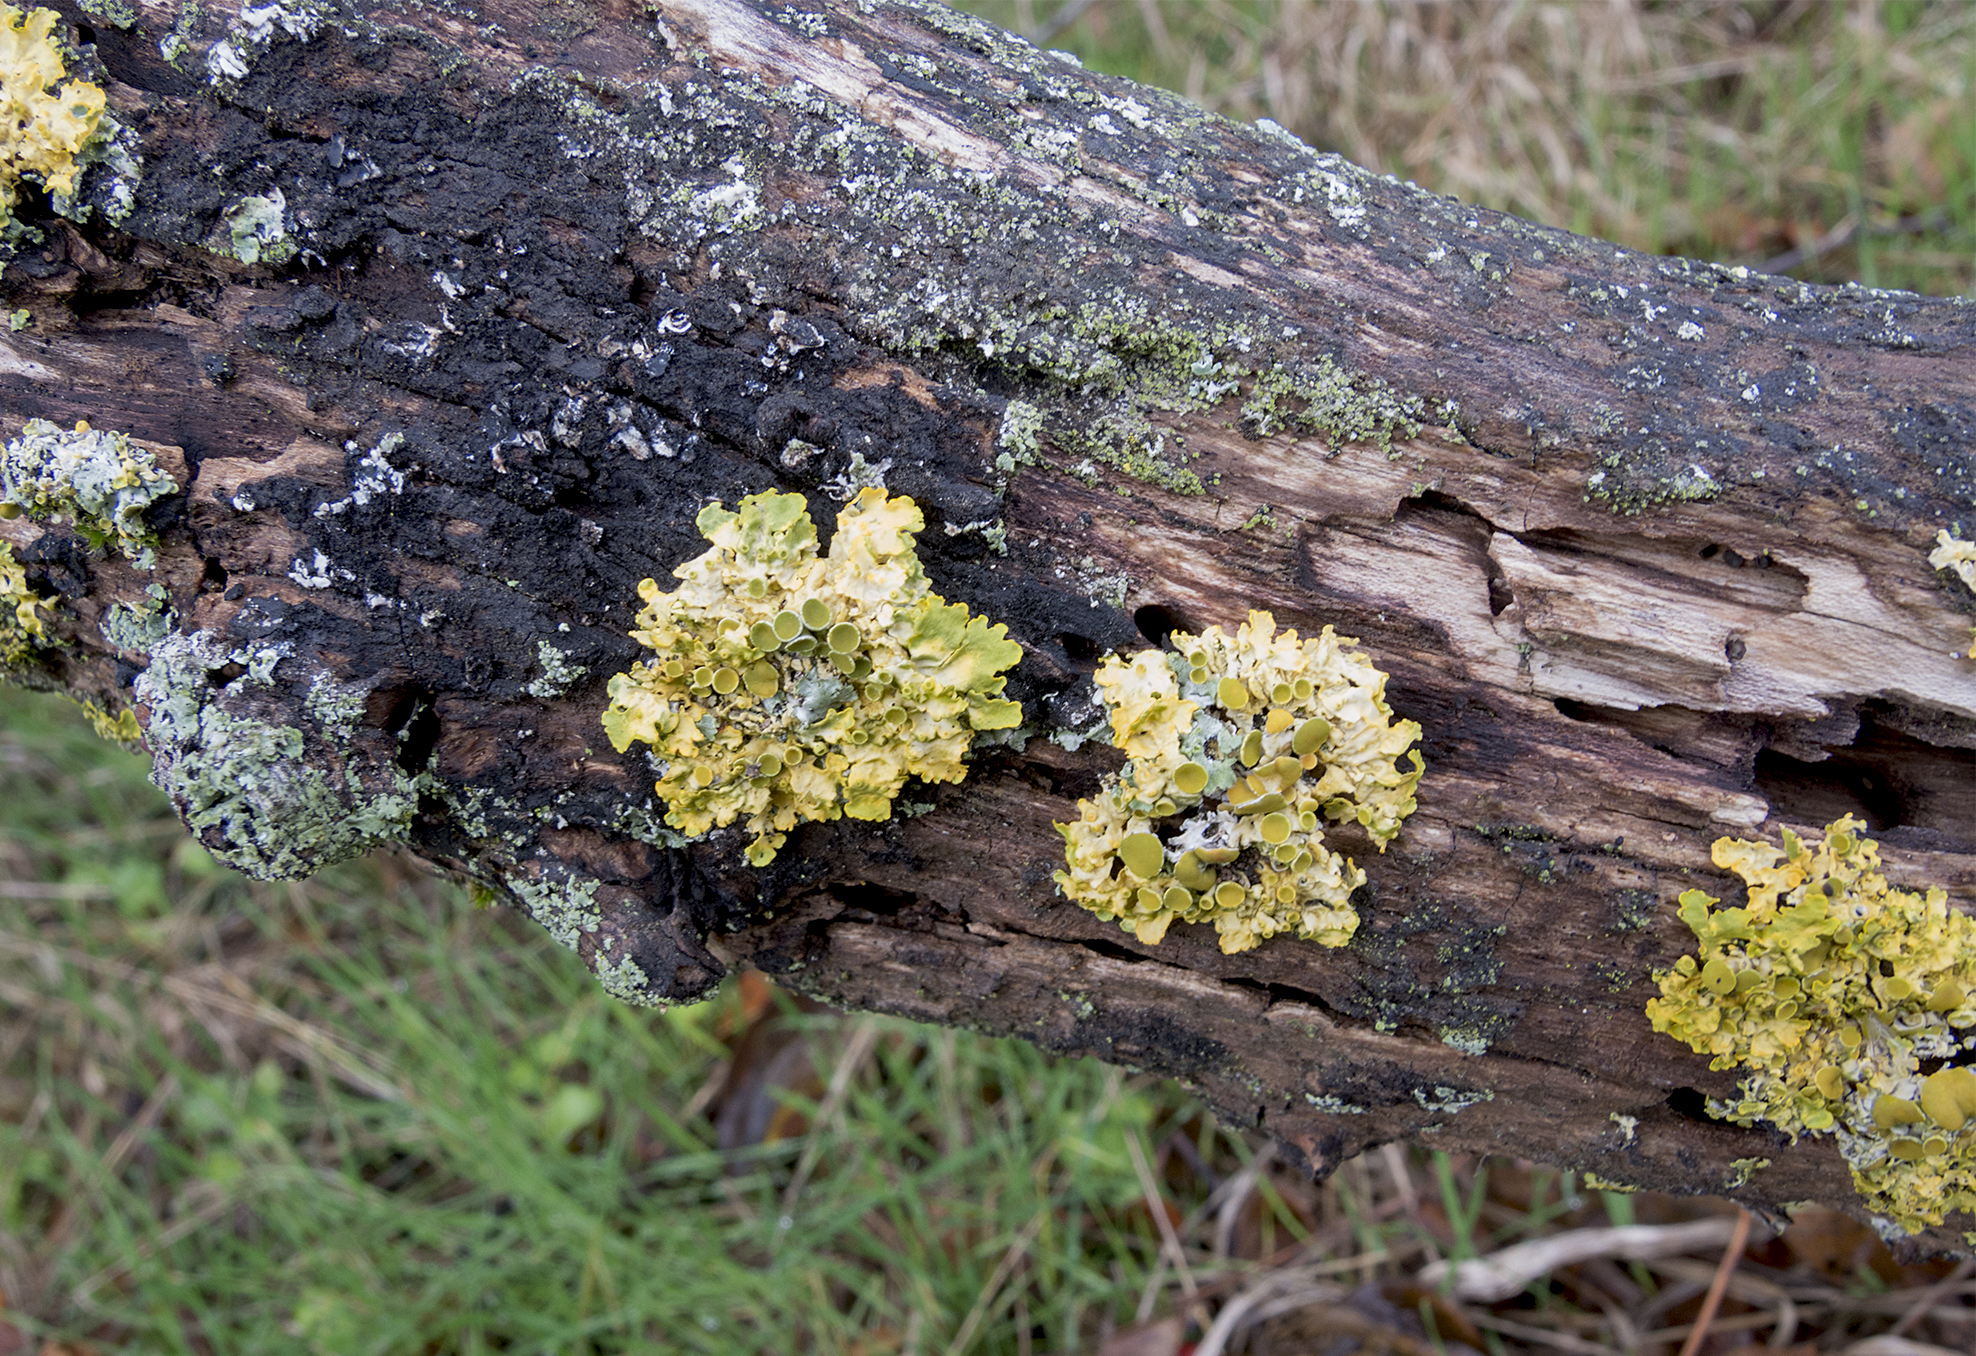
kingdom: Fungi
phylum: Ascomycota
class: Lecanoromycetes
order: Teloschistales
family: Teloschistaceae
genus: Xanthoria
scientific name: Xanthoria parietina
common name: Common orange lichen
